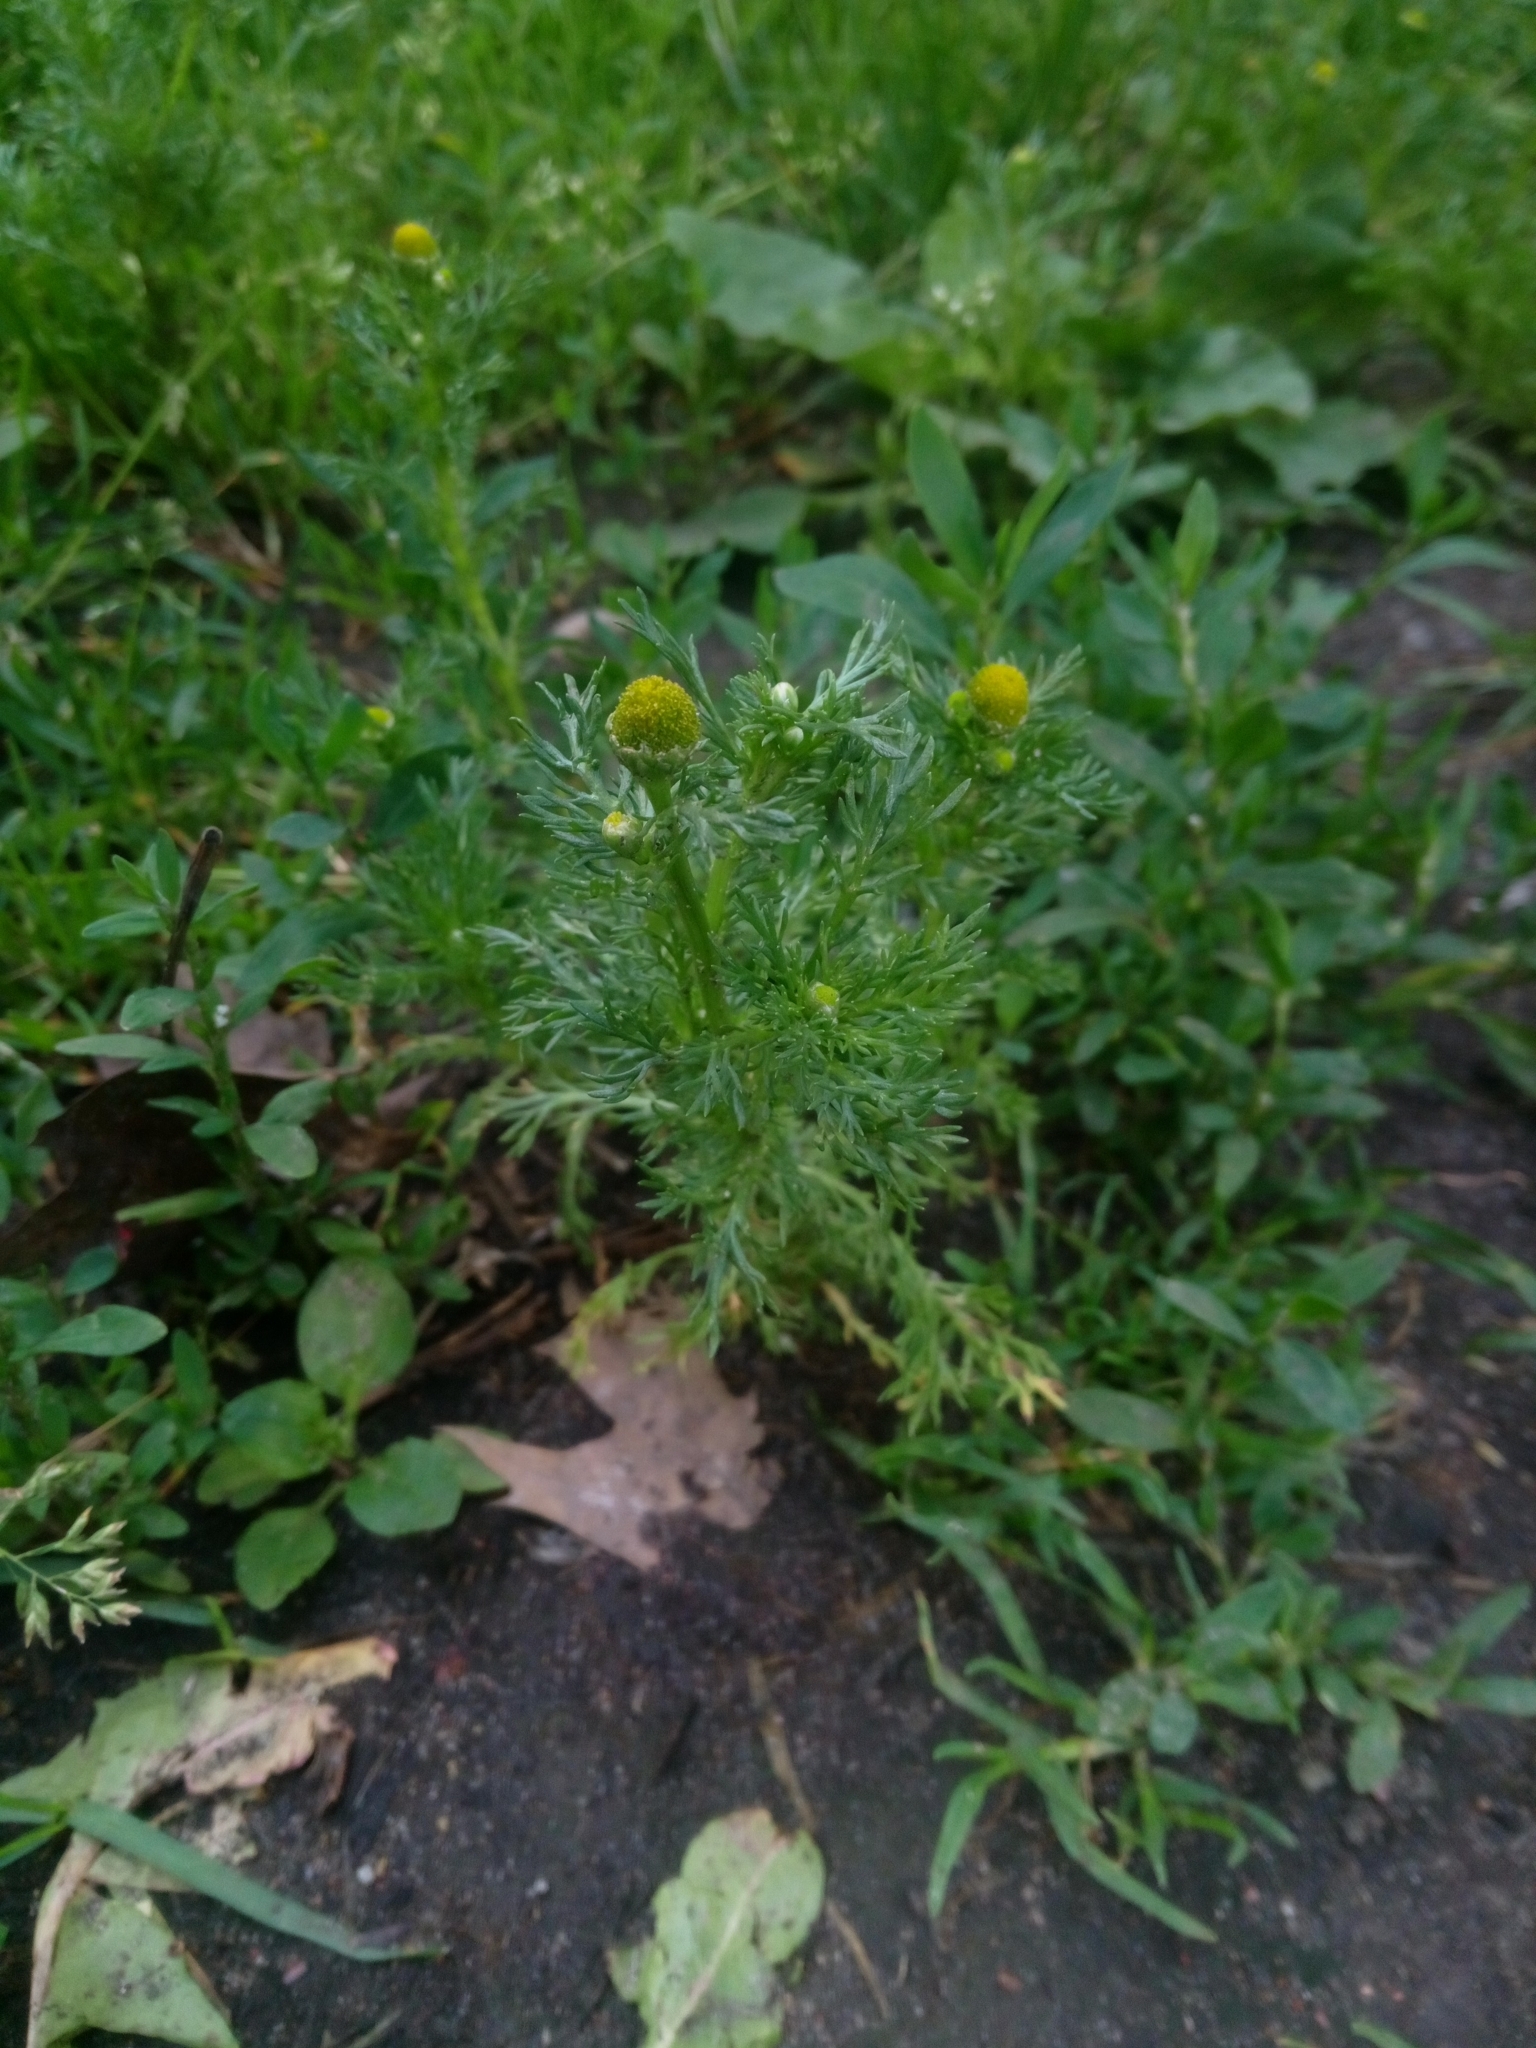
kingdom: Plantae
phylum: Tracheophyta
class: Magnoliopsida
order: Asterales
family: Asteraceae
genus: Matricaria
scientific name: Matricaria discoidea
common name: Disc mayweed
